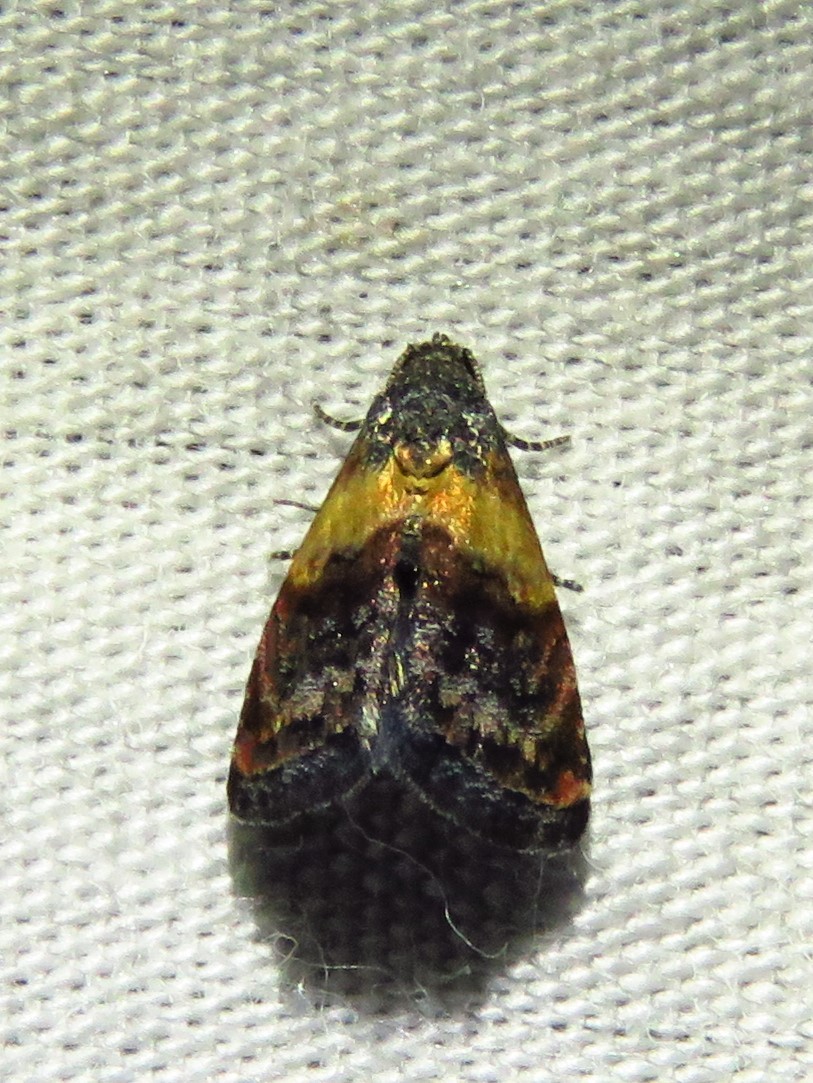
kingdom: Animalia
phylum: Arthropoda
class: Insecta
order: Lepidoptera
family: Noctuidae
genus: Tripudia
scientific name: Tripudia flavofasciata
